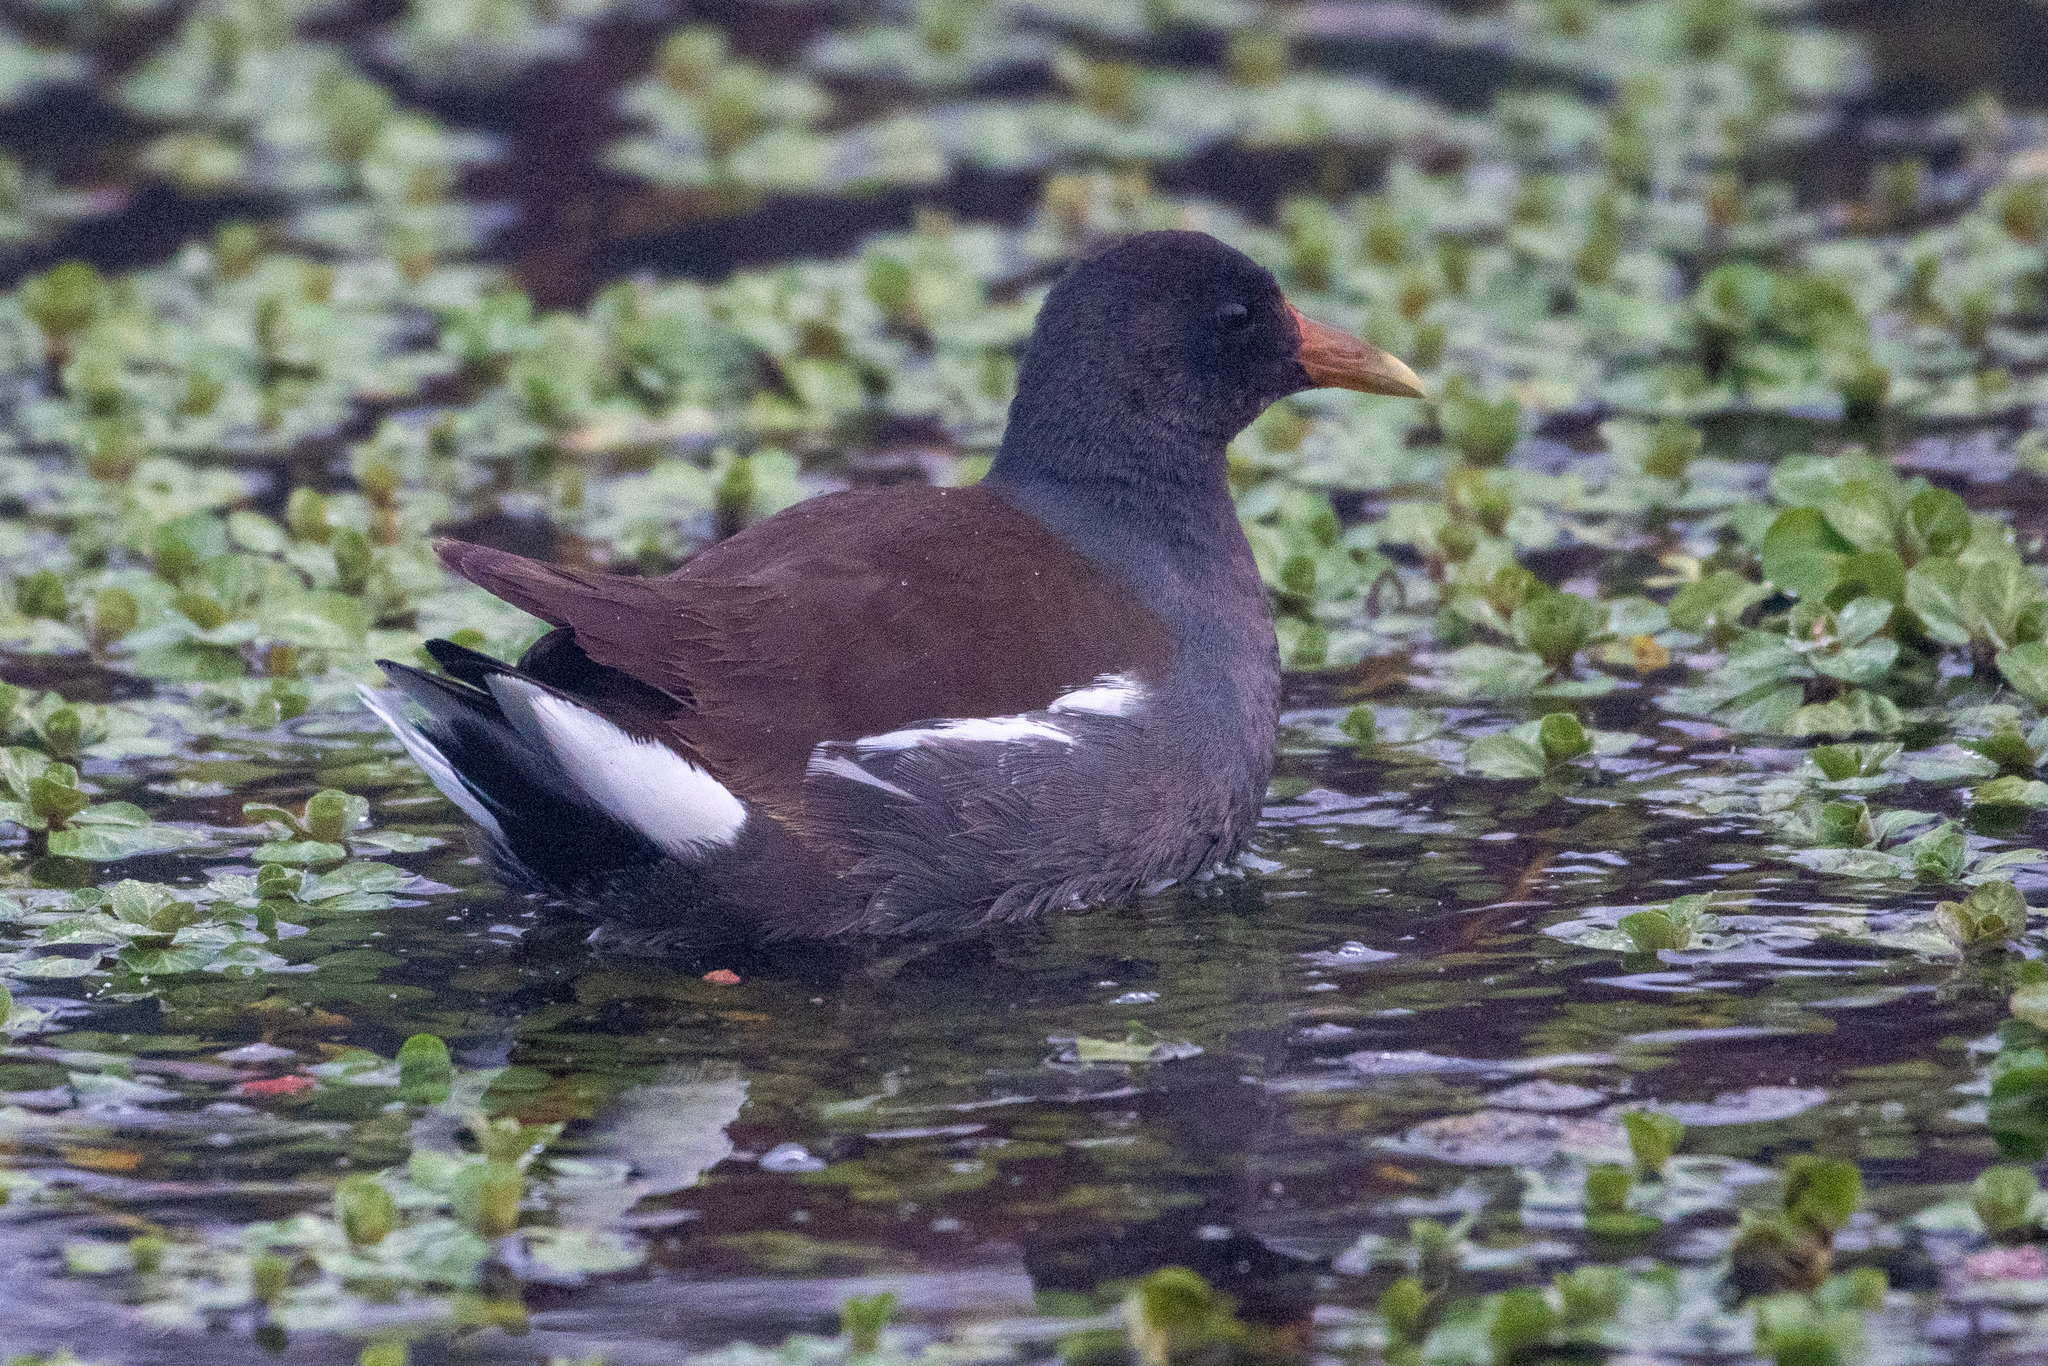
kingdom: Animalia
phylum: Chordata
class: Aves
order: Gruiformes
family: Rallidae
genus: Gallinula
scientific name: Gallinula chloropus
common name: Common moorhen
